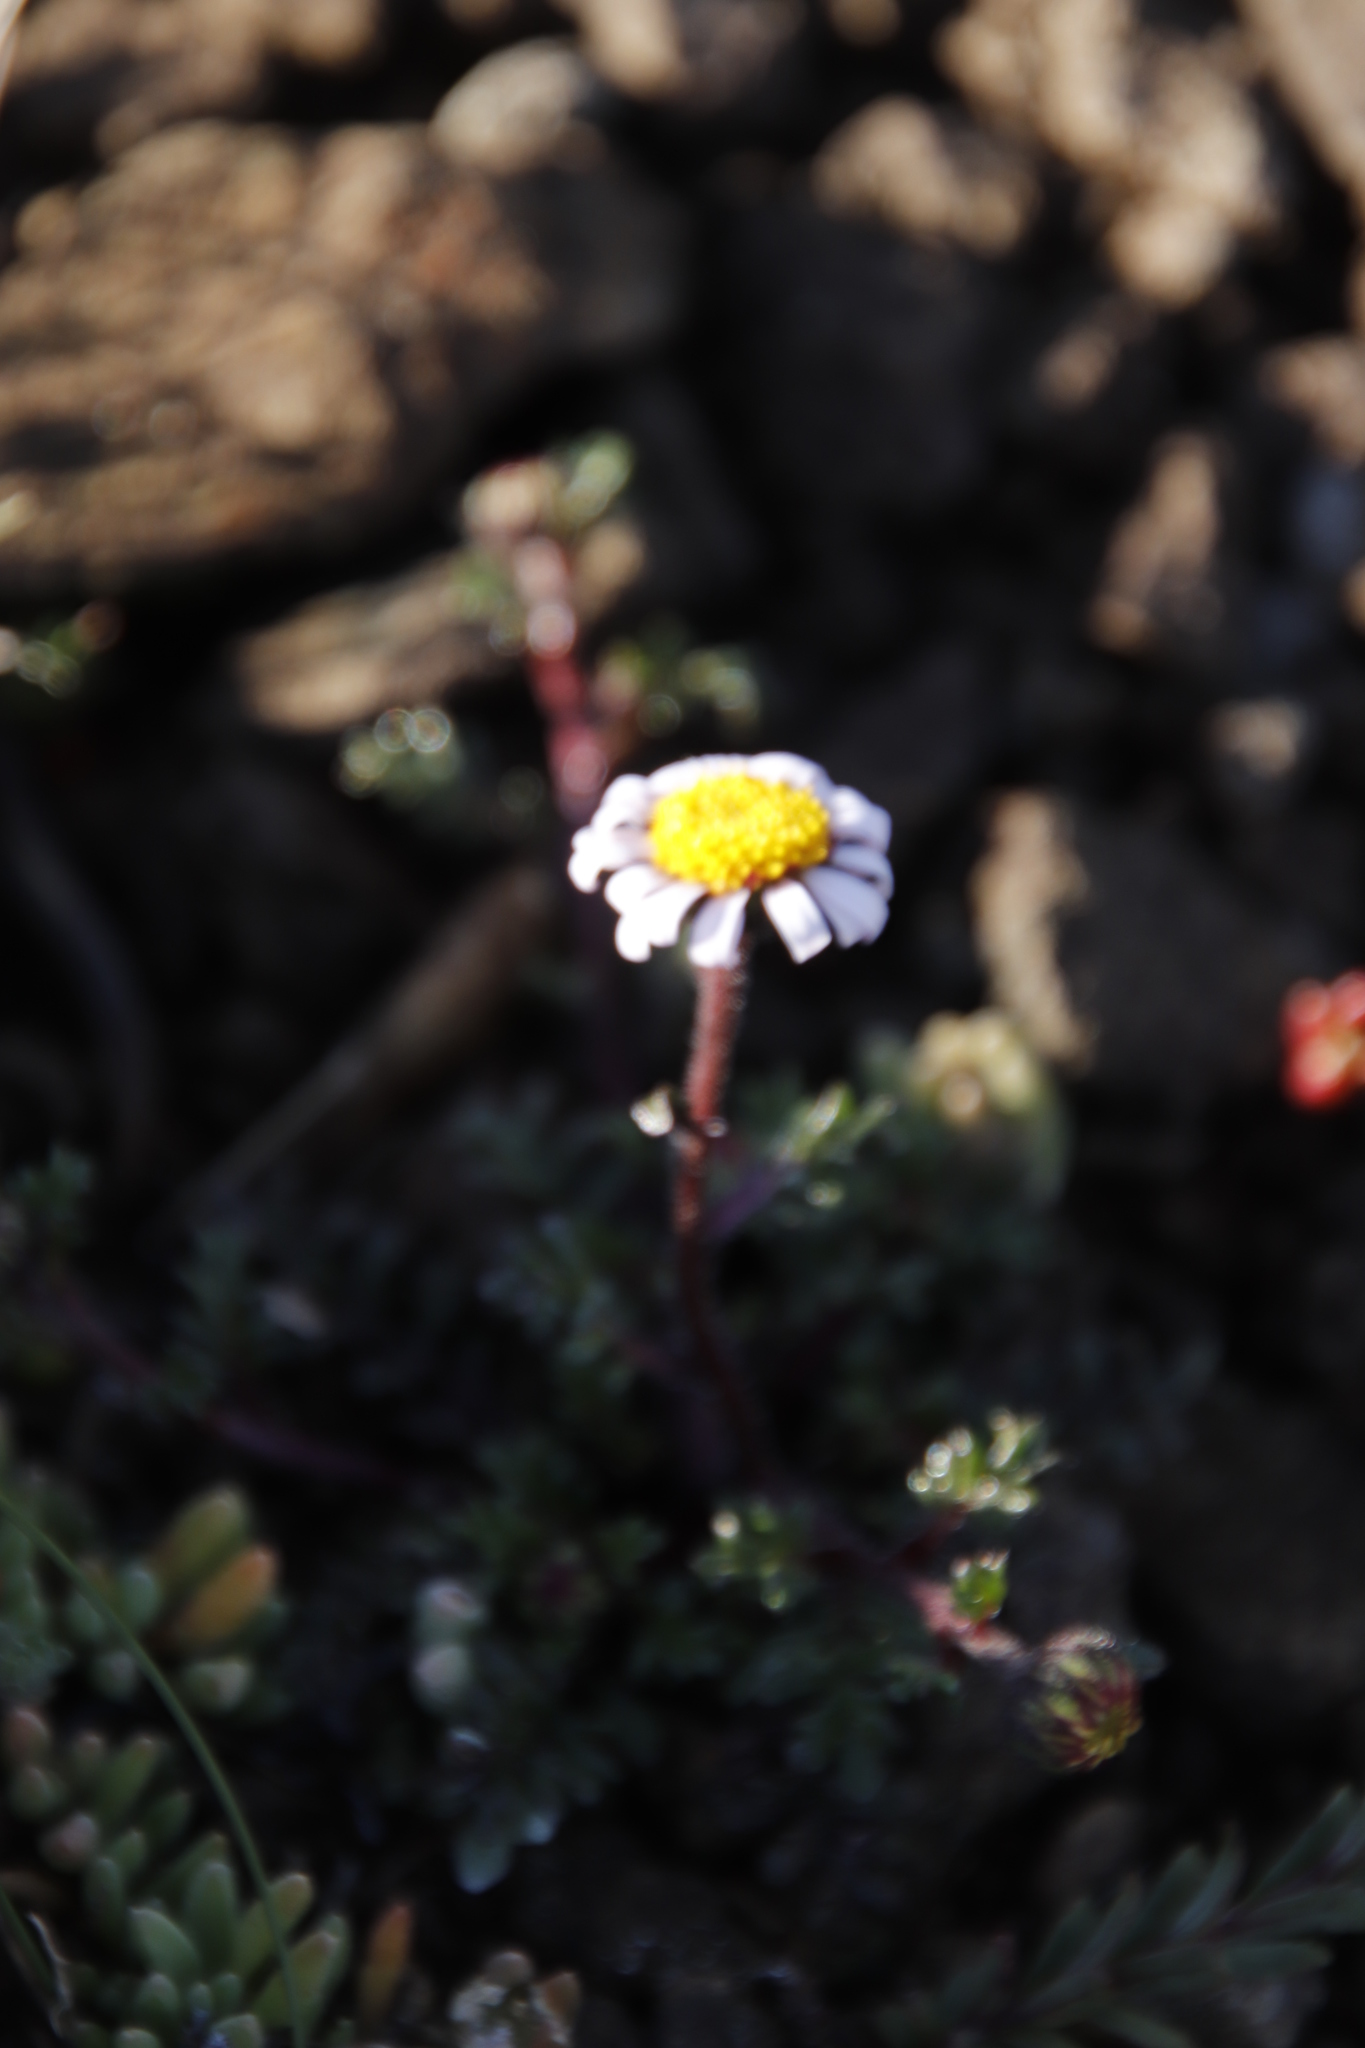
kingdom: Plantae
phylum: Tracheophyta
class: Magnoliopsida
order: Asterales
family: Asteraceae
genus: Afroaster
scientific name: Afroaster erucifolius
